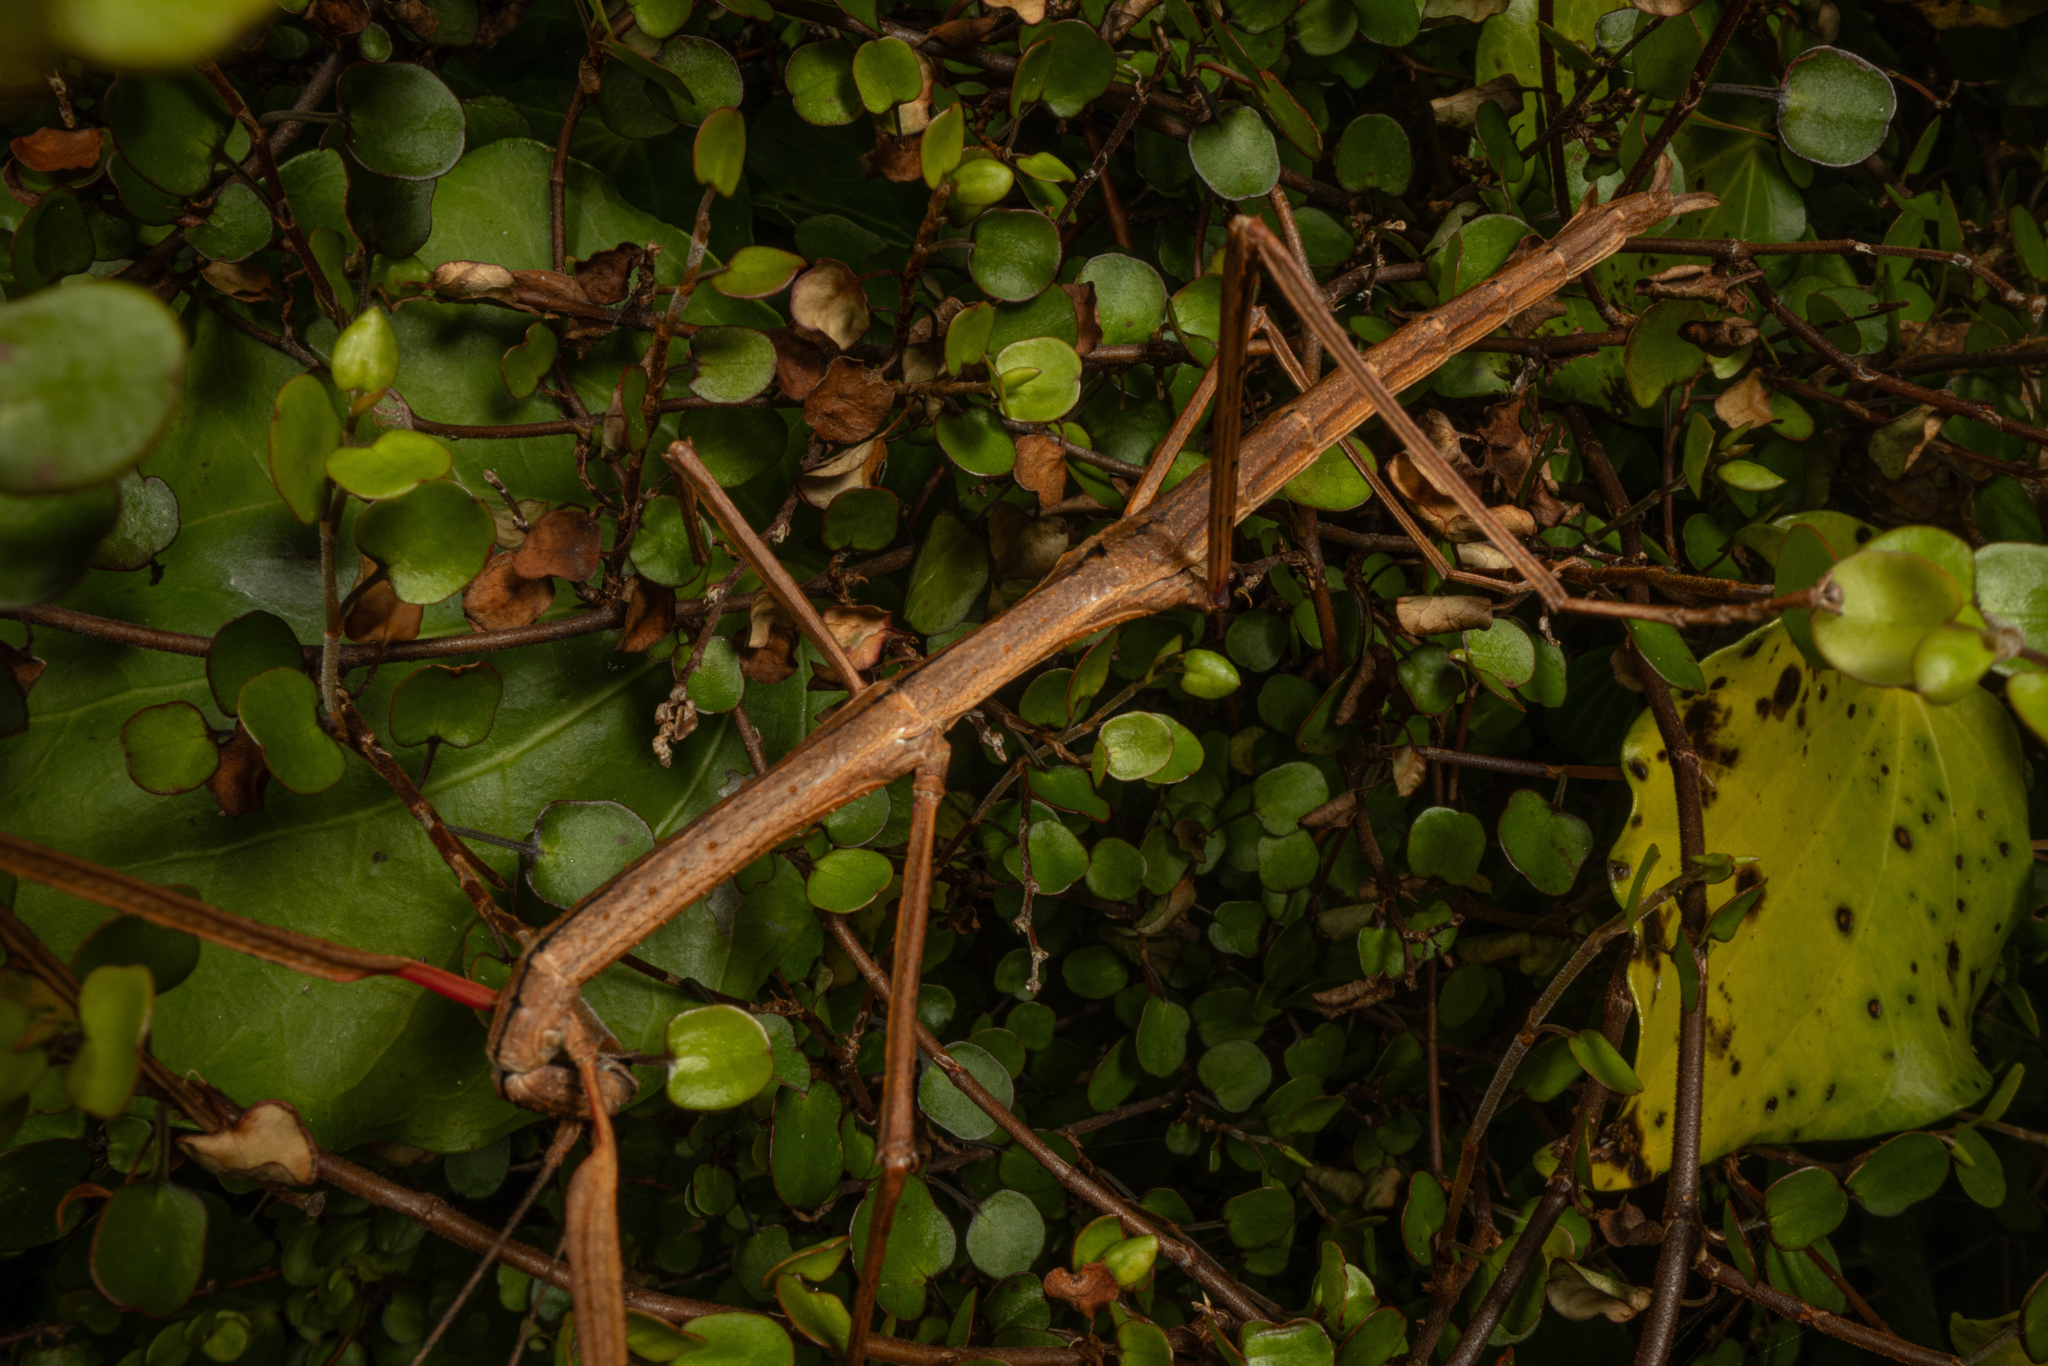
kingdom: Animalia
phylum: Arthropoda
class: Insecta
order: Phasmida
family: Phasmatidae
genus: Clitarchus
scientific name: Clitarchus hookeri
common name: Smooth stick insect
